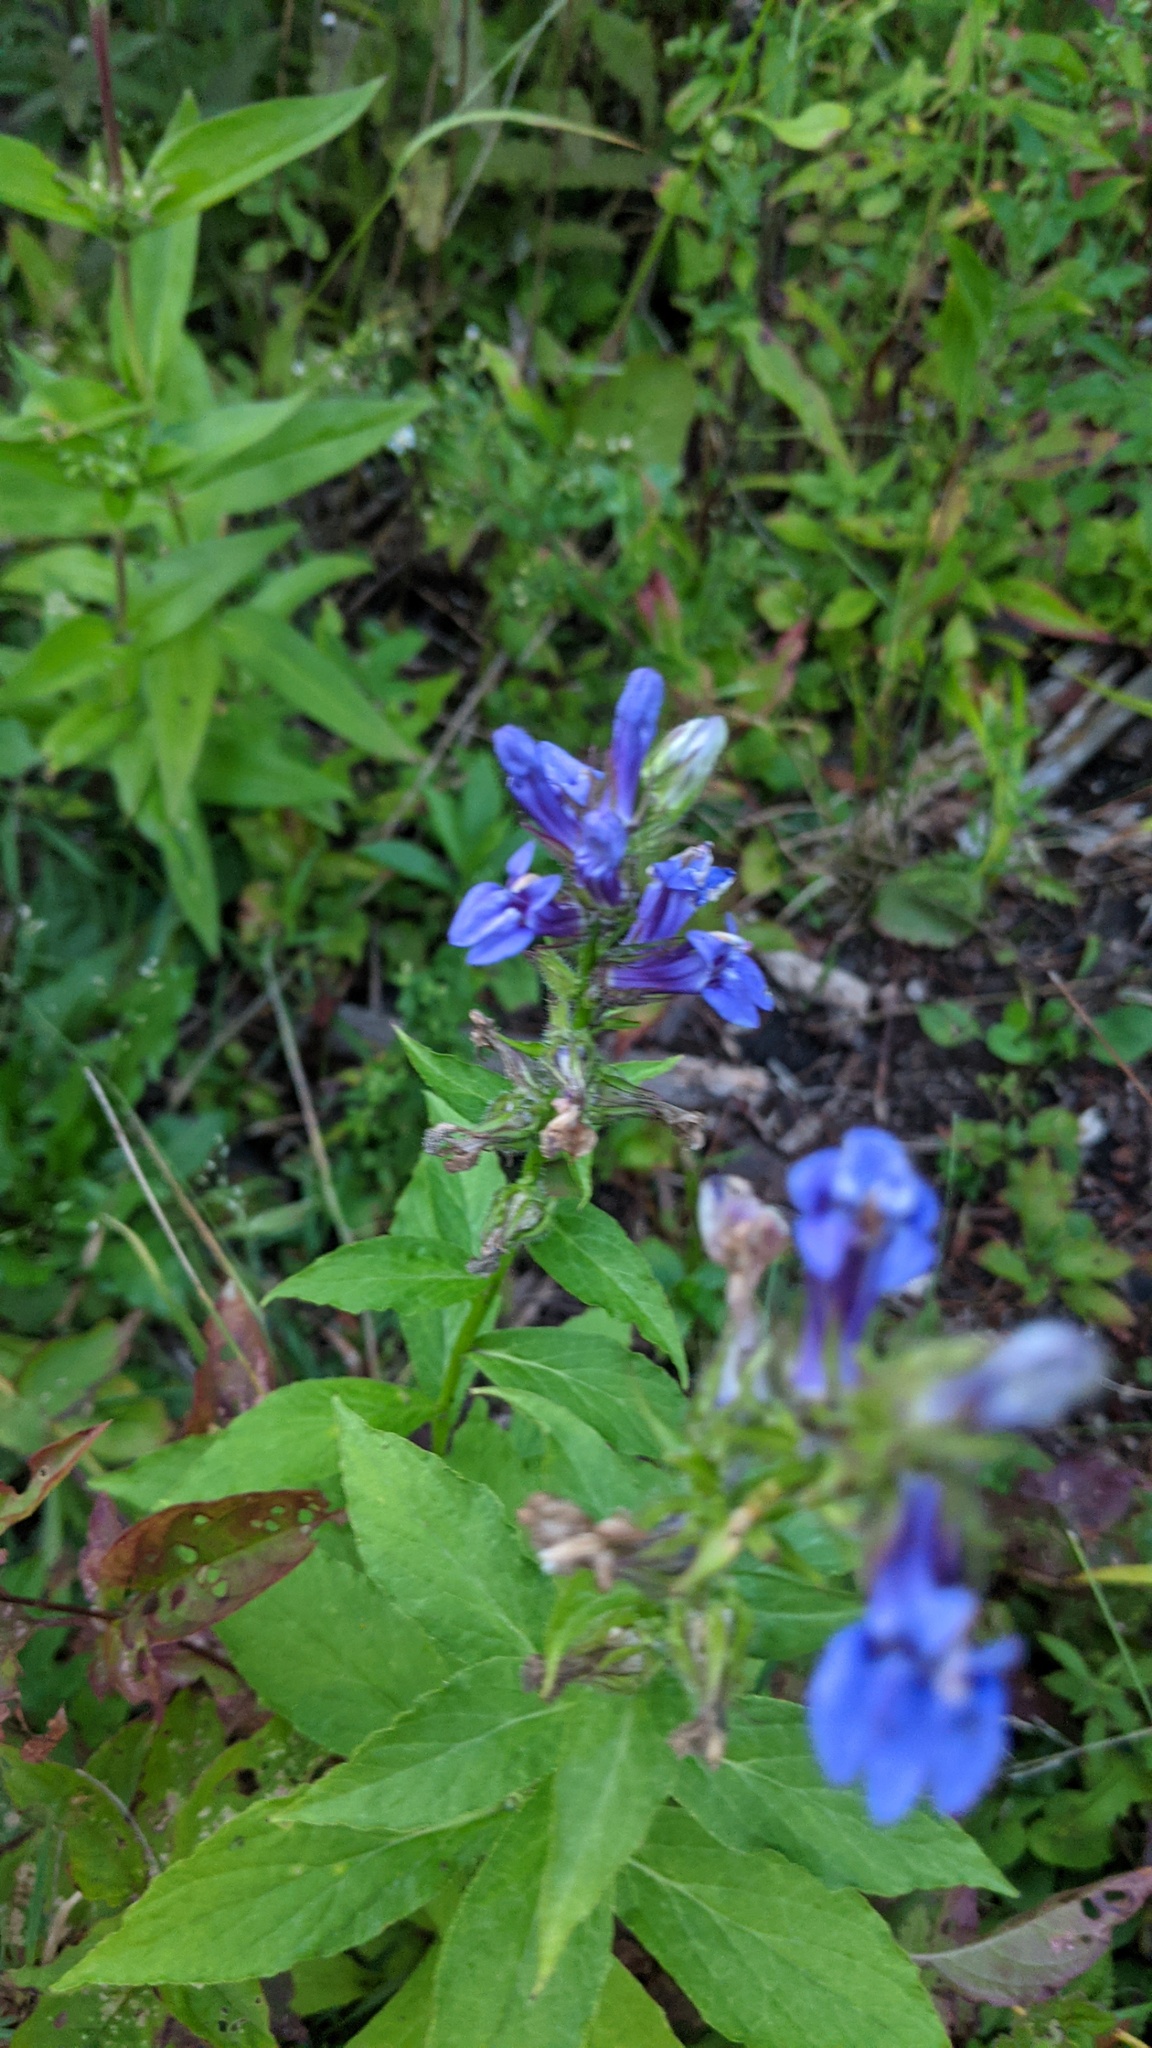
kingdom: Plantae
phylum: Tracheophyta
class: Magnoliopsida
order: Asterales
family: Campanulaceae
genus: Lobelia
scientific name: Lobelia siphilitica
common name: Great lobelia
